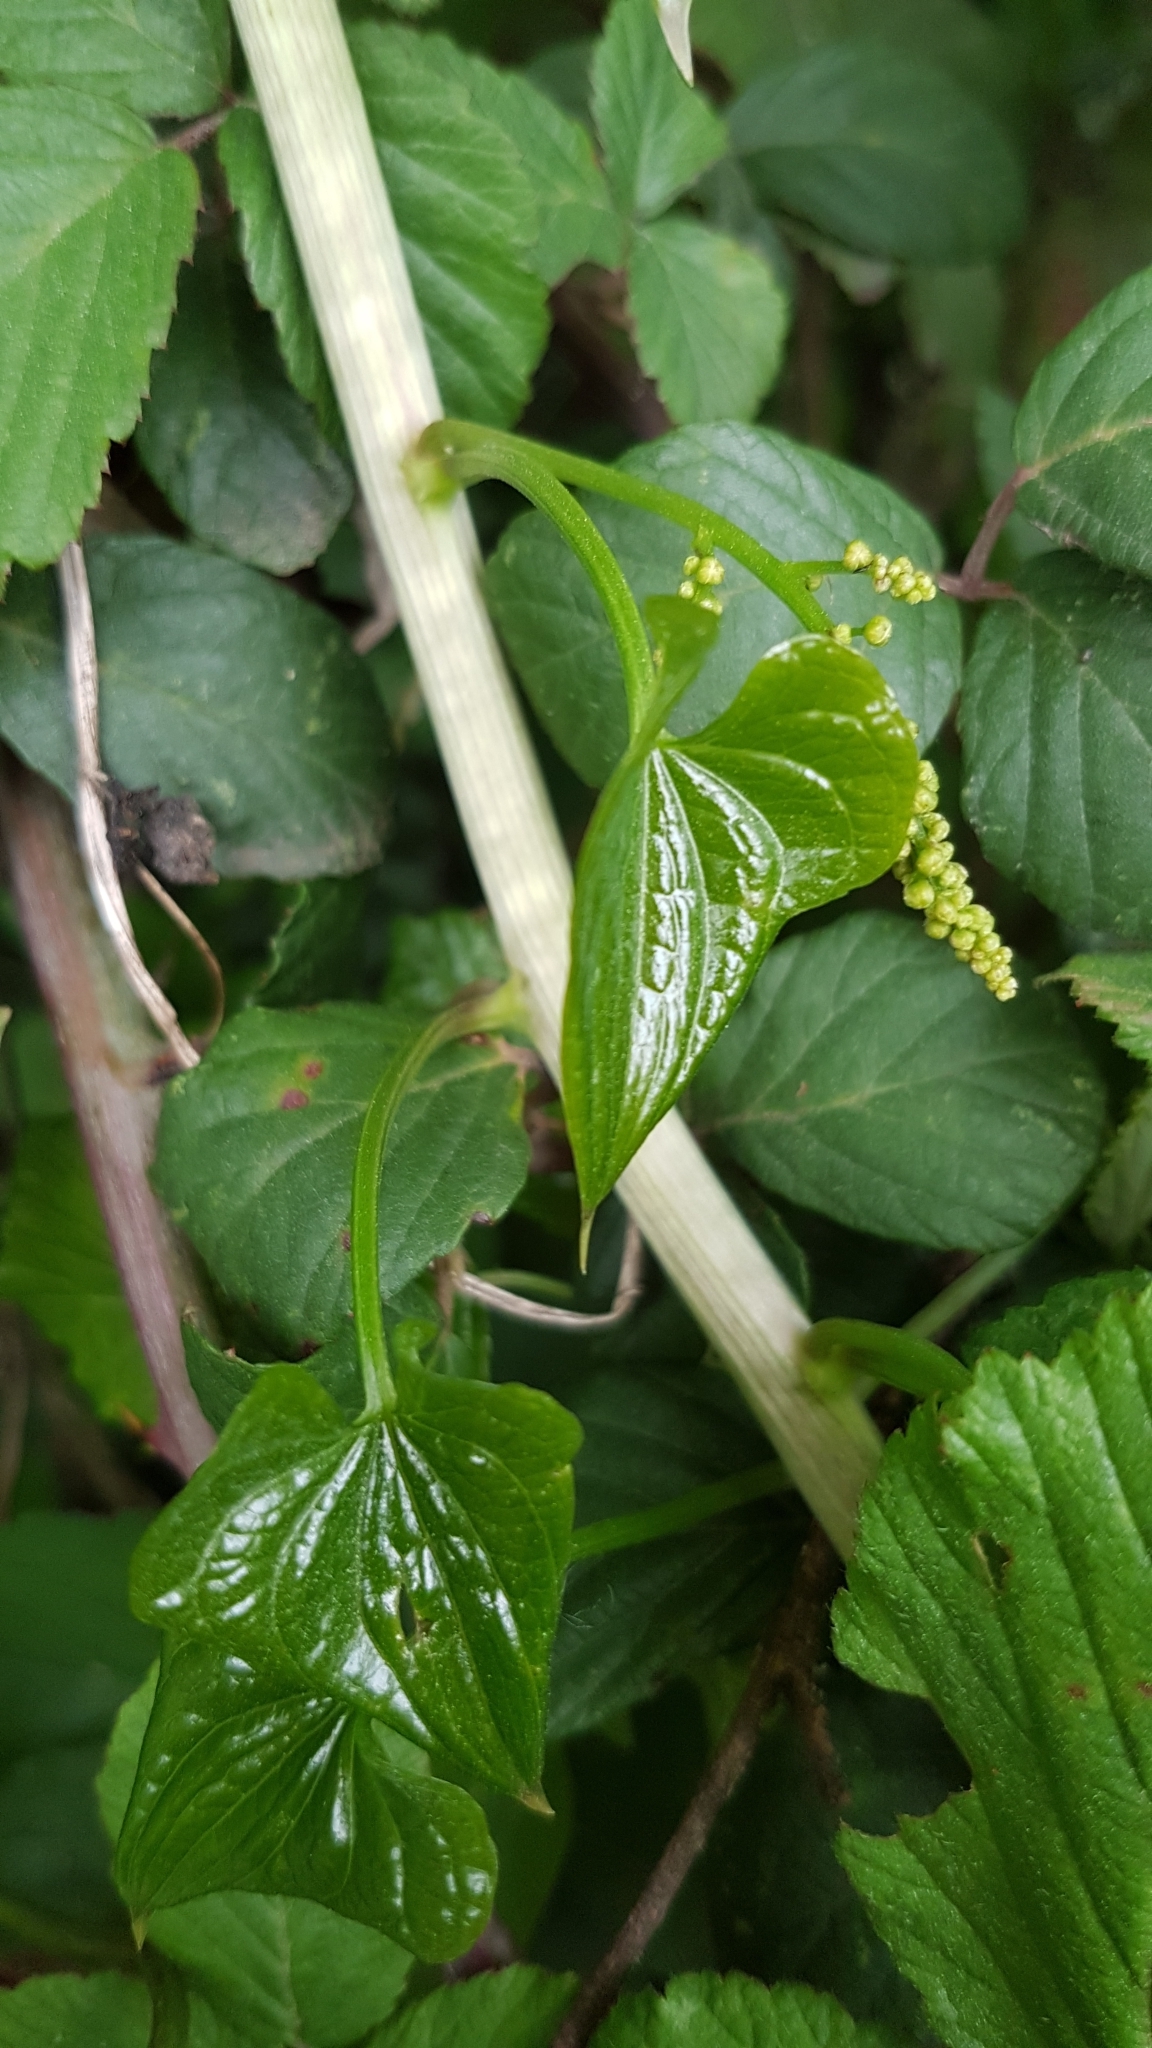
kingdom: Plantae
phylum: Tracheophyta
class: Liliopsida
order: Dioscoreales
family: Dioscoreaceae
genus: Dioscorea
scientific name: Dioscorea communis
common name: Black-bindweed
